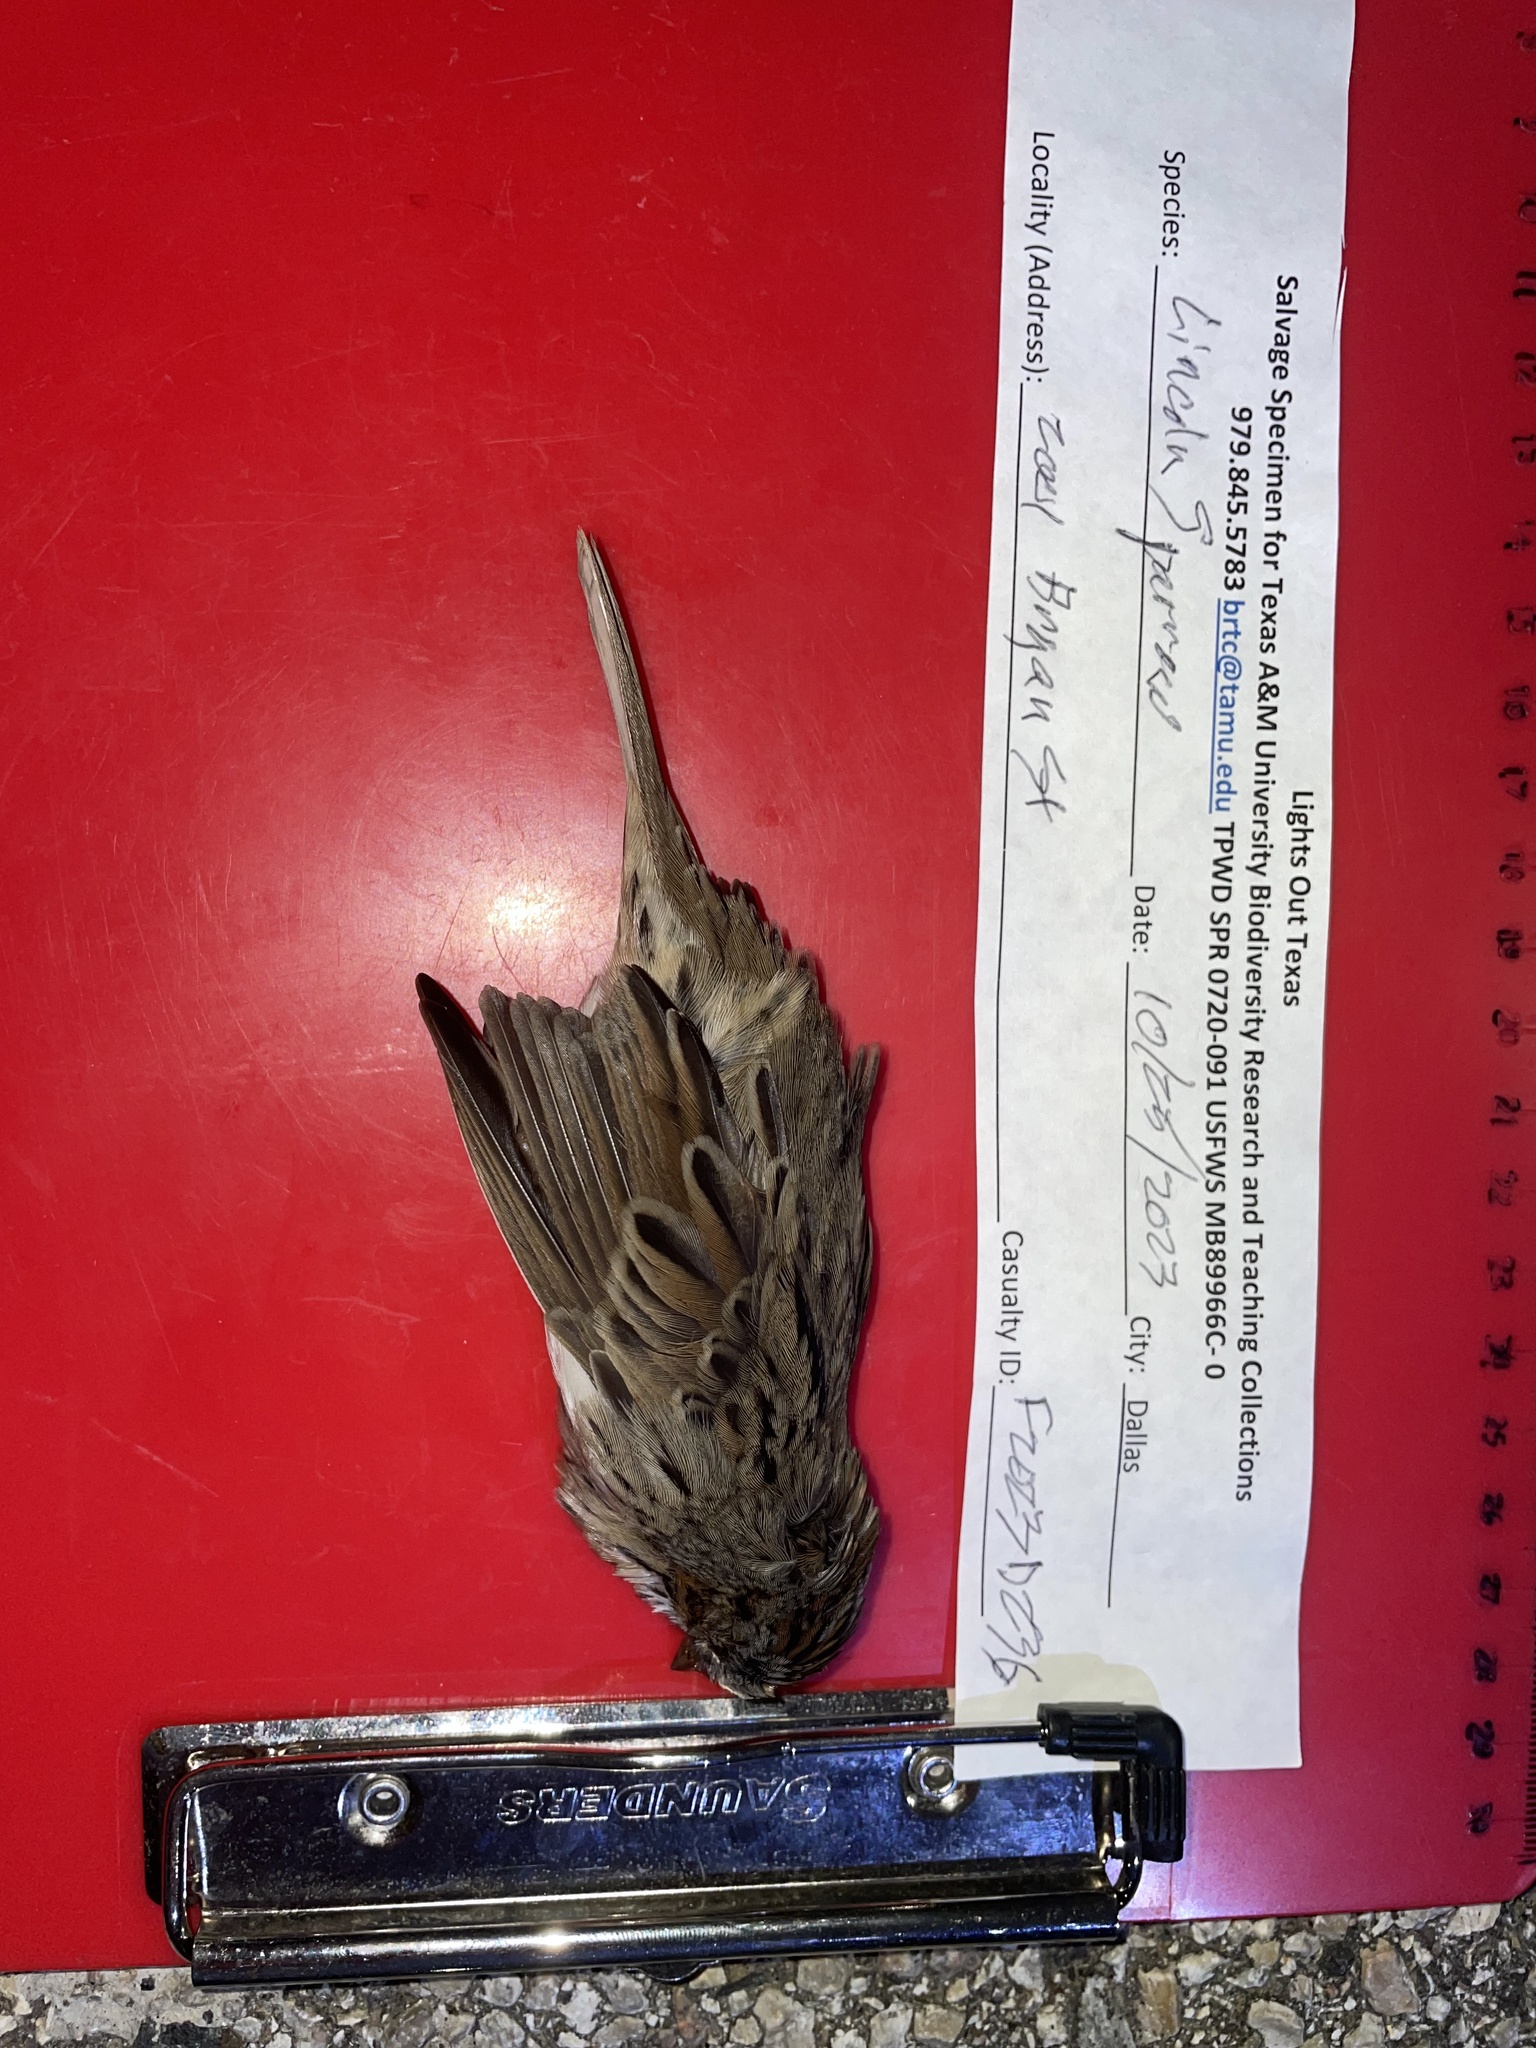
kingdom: Animalia
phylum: Chordata
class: Aves
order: Passeriformes
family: Passerellidae
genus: Melospiza
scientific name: Melospiza lincolnii
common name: Lincoln's sparrow
